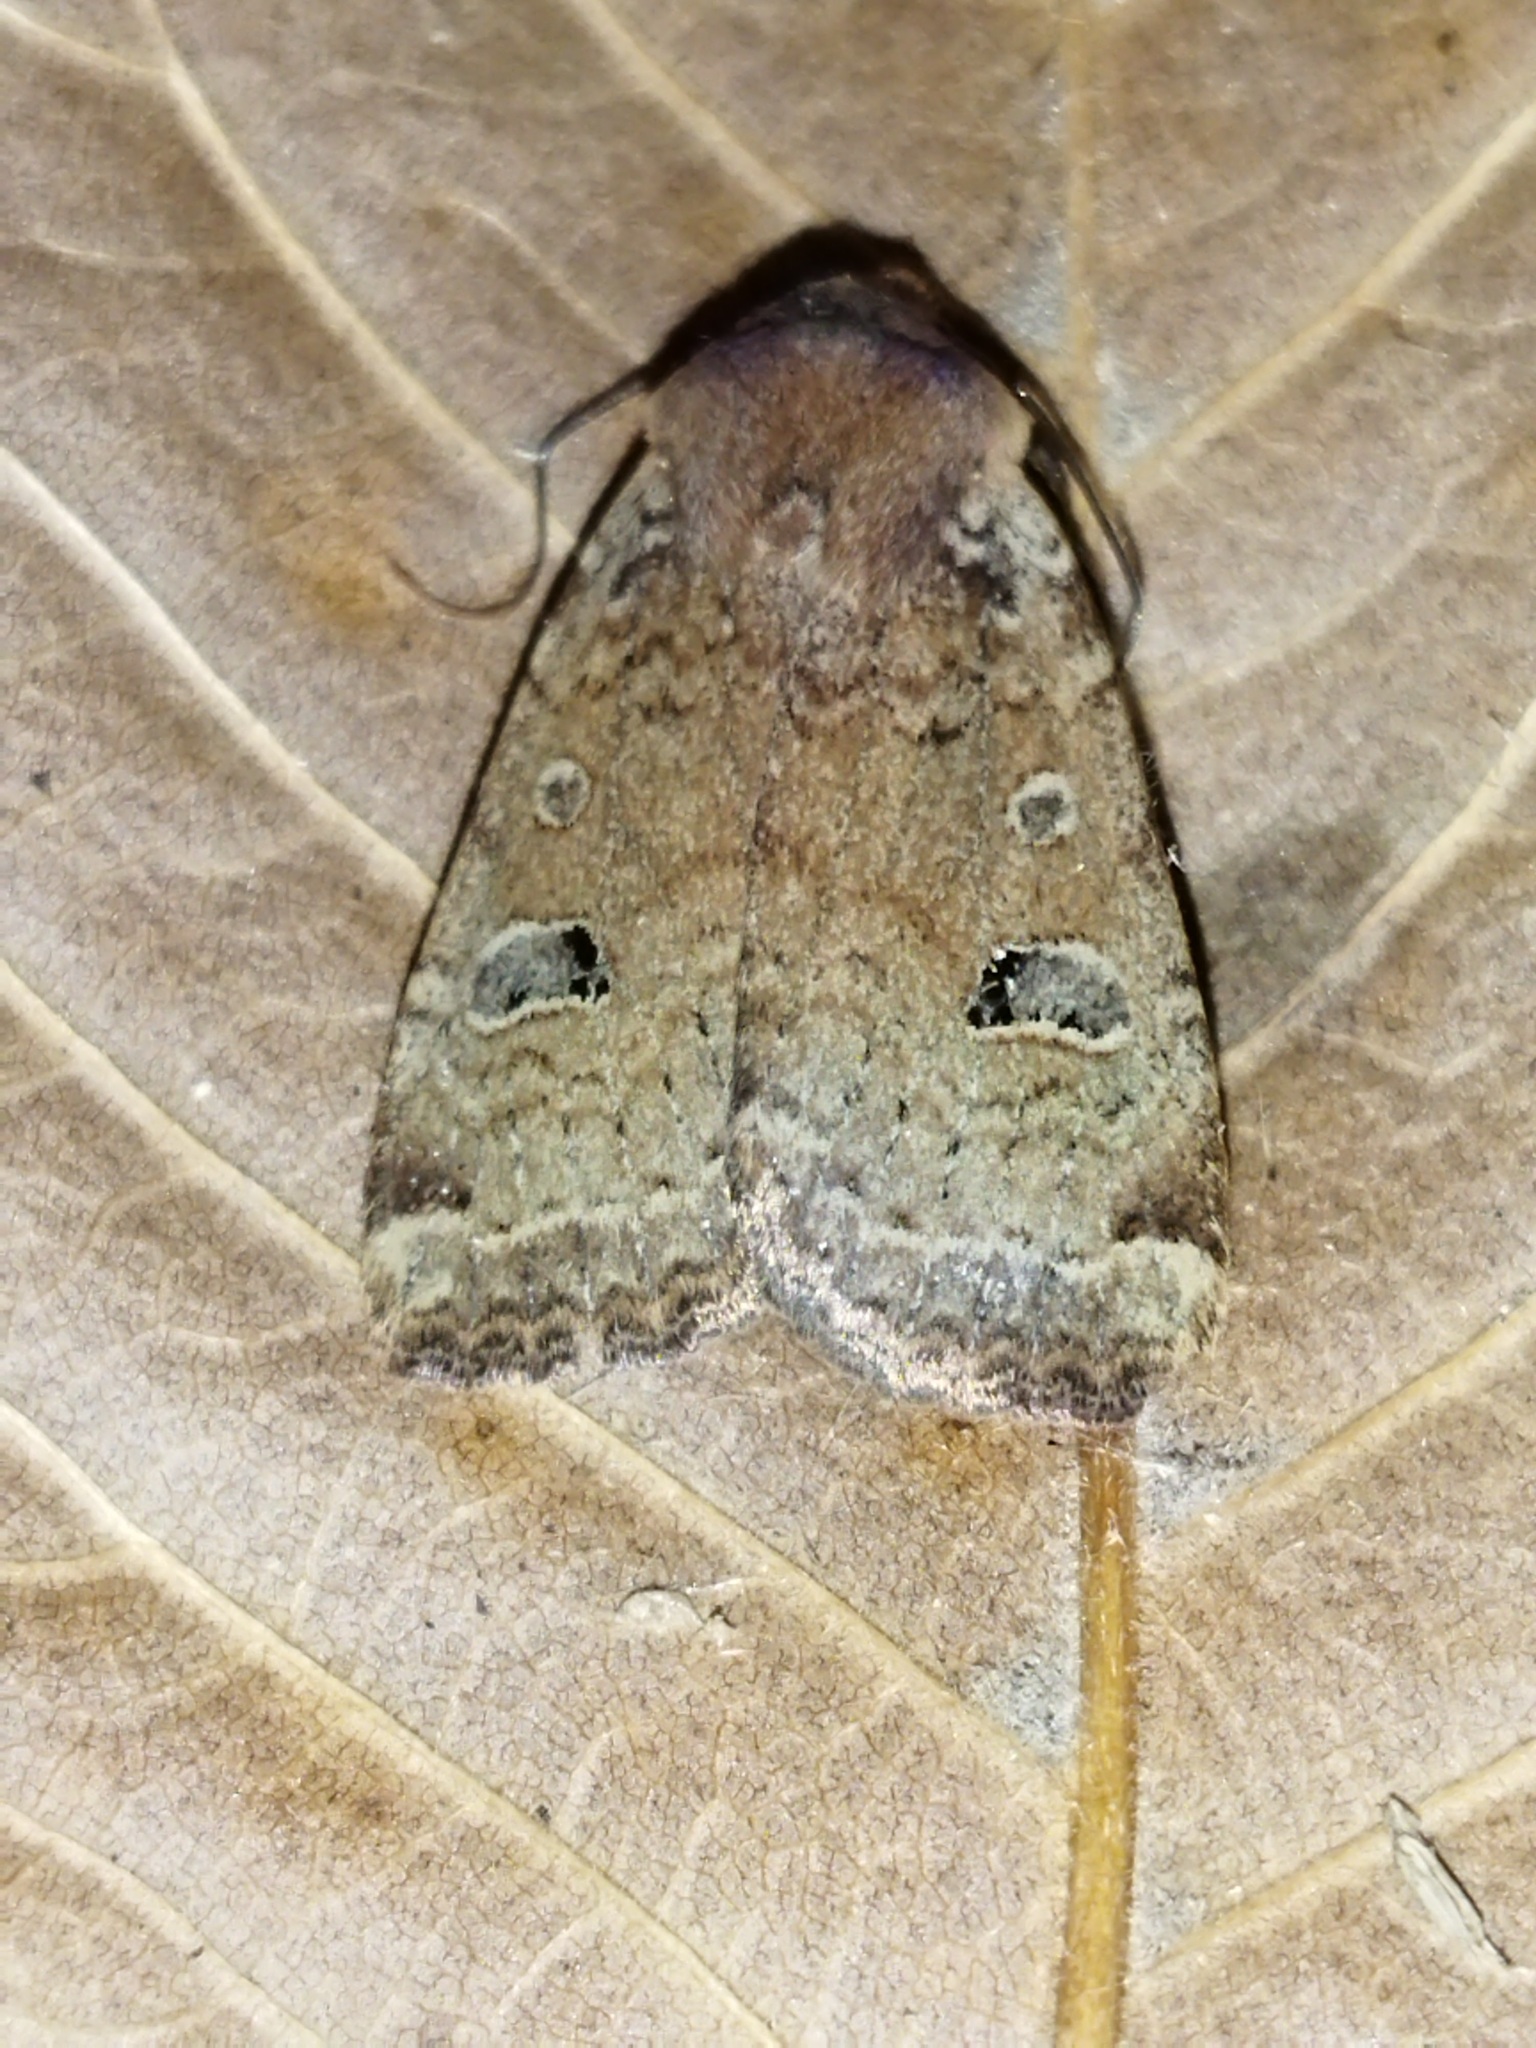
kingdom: Animalia
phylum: Arthropoda
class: Insecta
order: Lepidoptera
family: Noctuidae
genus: Conistra
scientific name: Conistra erythrocephala
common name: Red-headed chestnut
